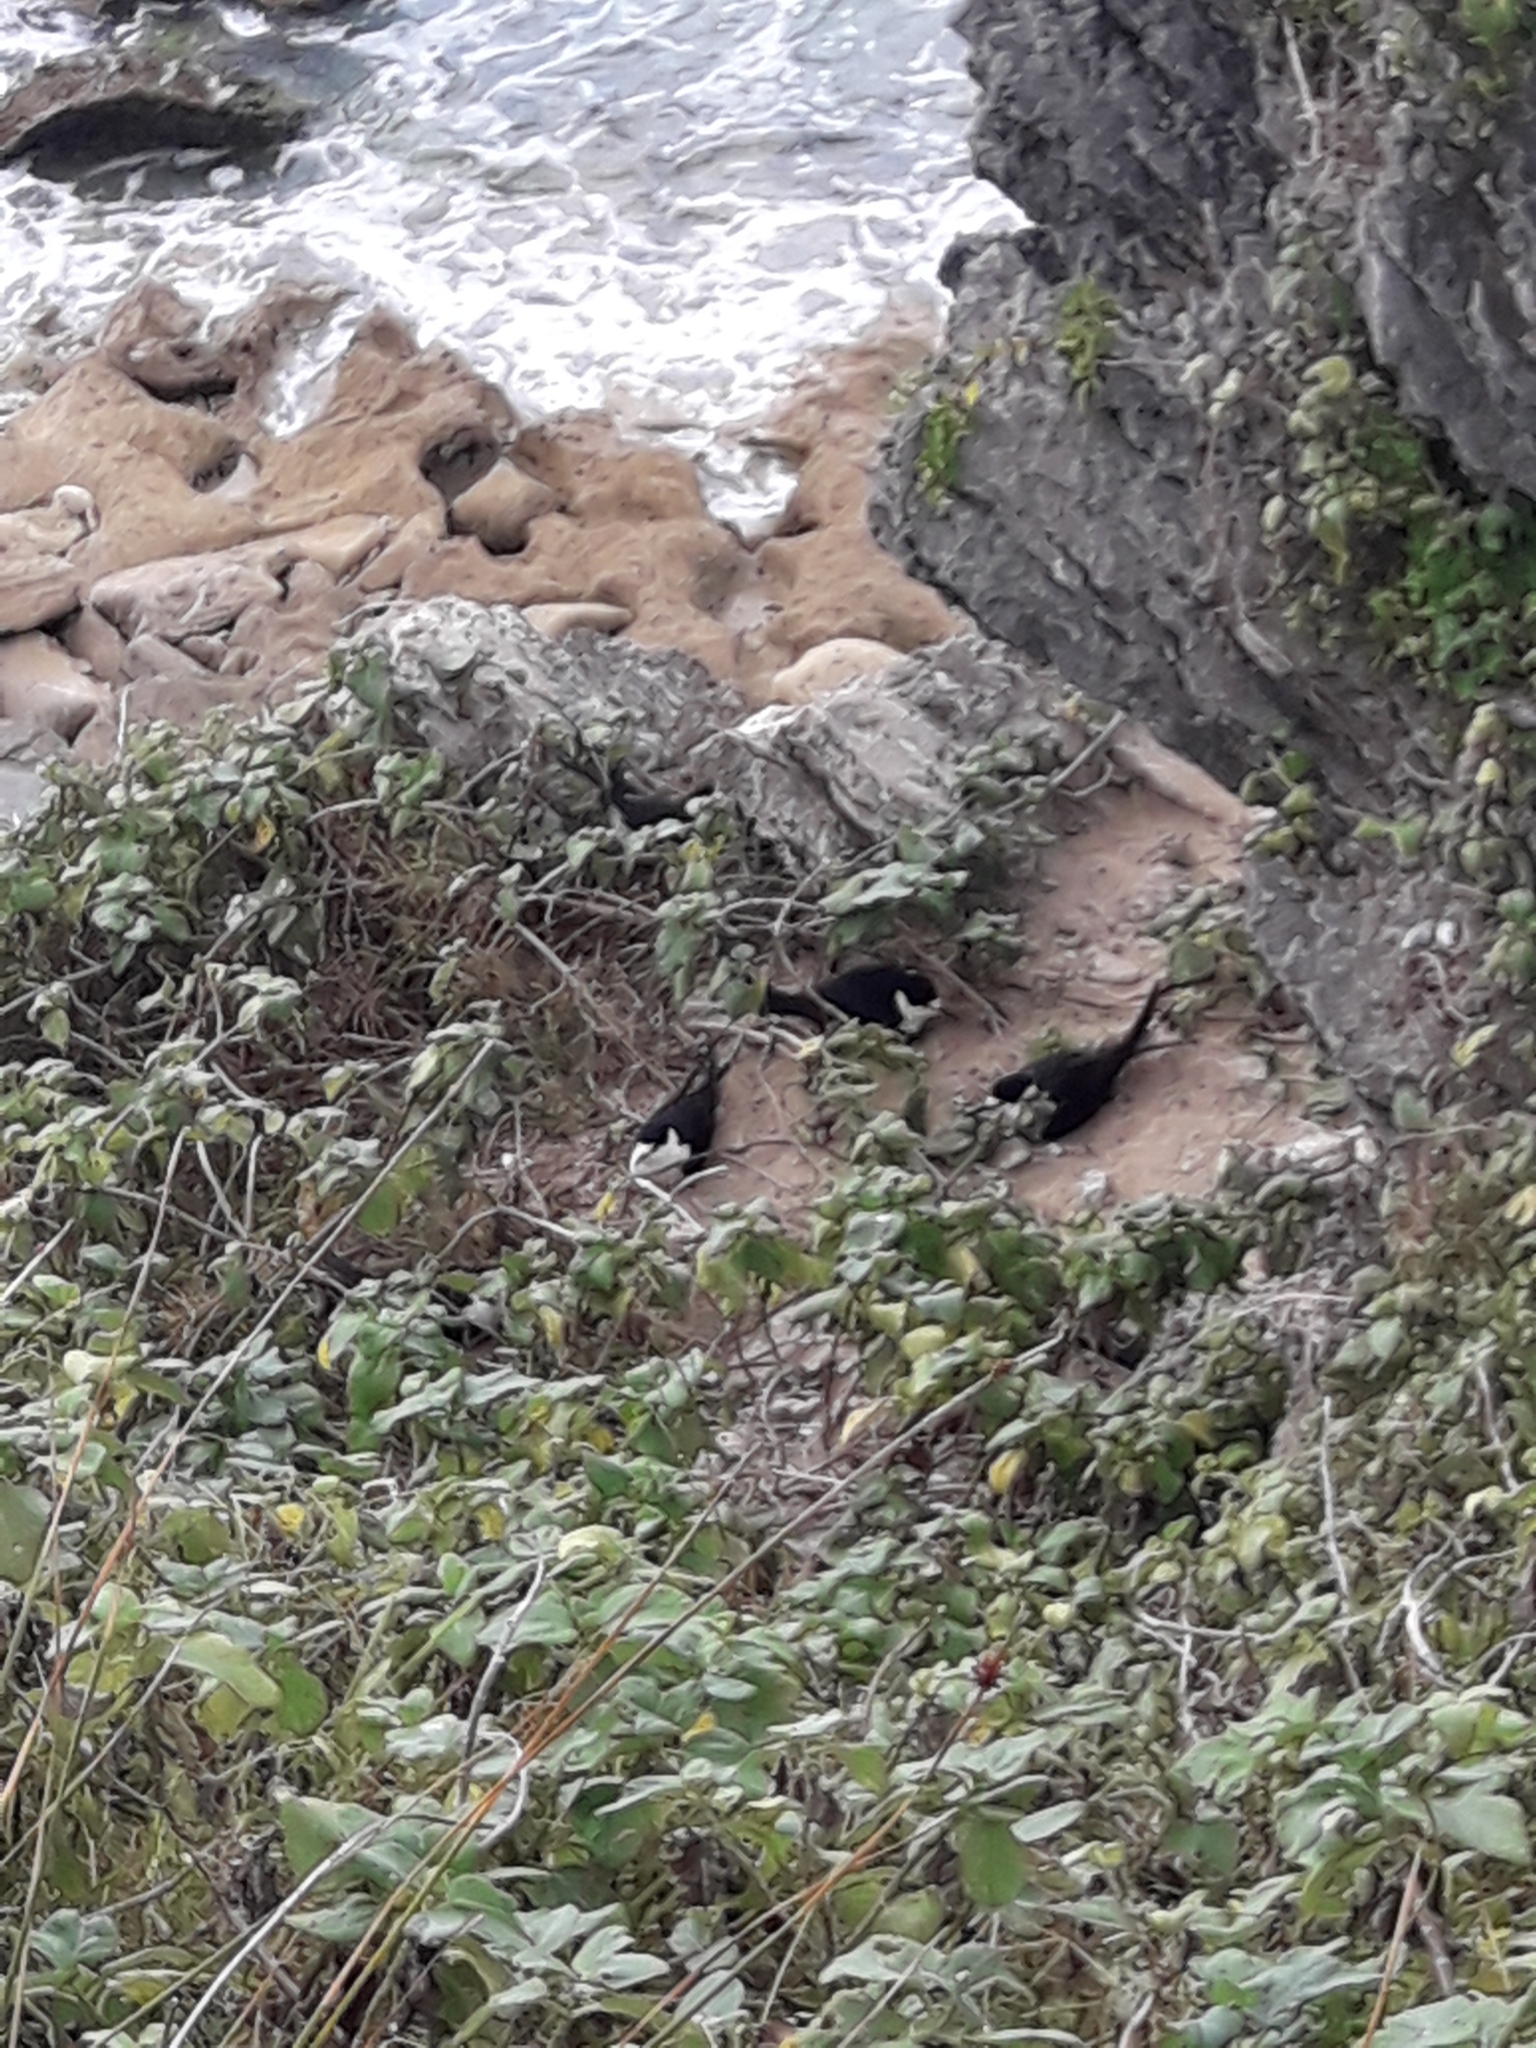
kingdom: Animalia
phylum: Chordata
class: Aves
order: Charadriiformes
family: Laridae
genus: Onychoprion
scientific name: Onychoprion fuscatus
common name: Sooty tern
